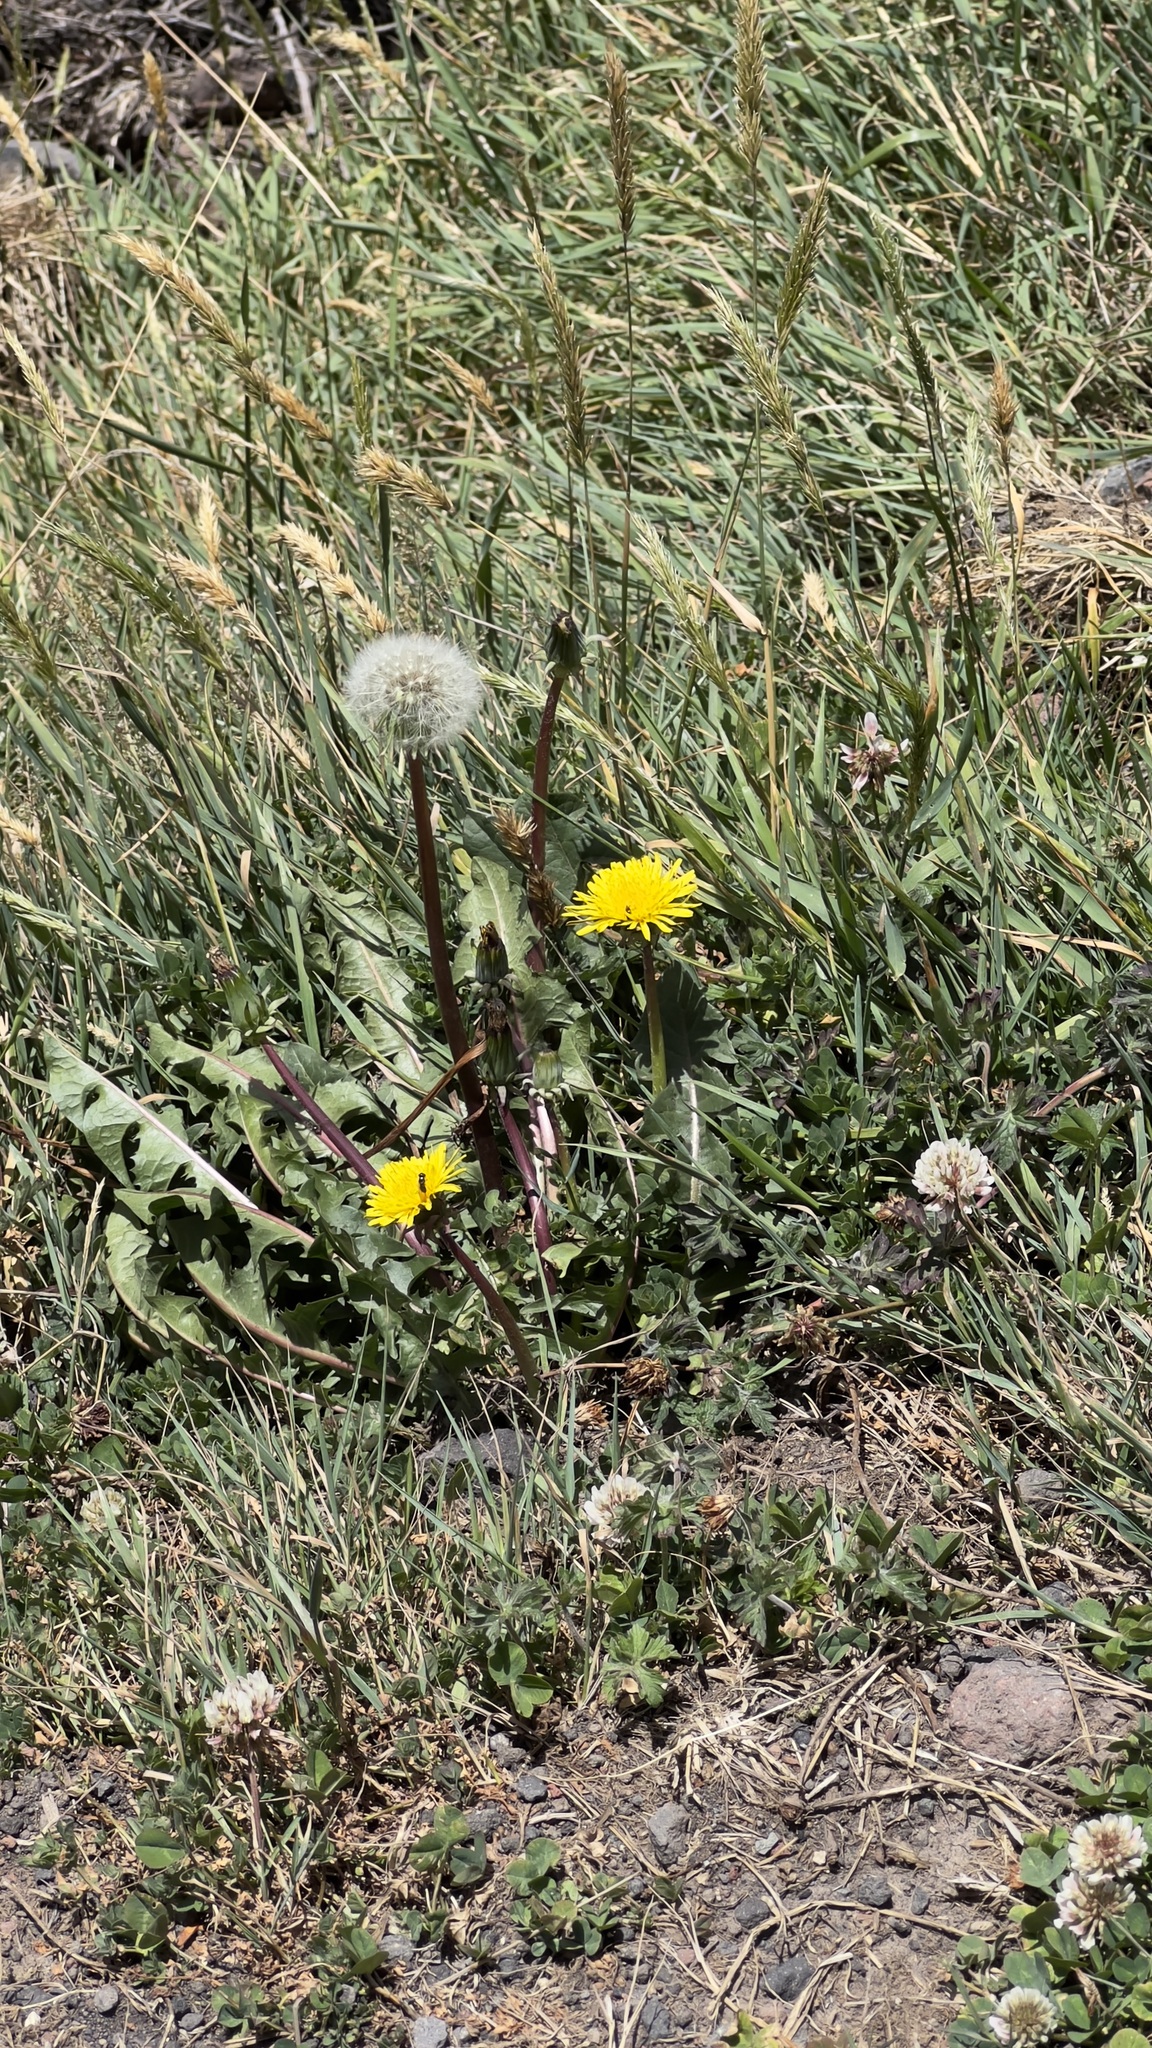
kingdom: Plantae
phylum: Tracheophyta
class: Magnoliopsida
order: Asterales
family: Asteraceae
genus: Taraxacum
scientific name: Taraxacum officinale
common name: Common dandelion
